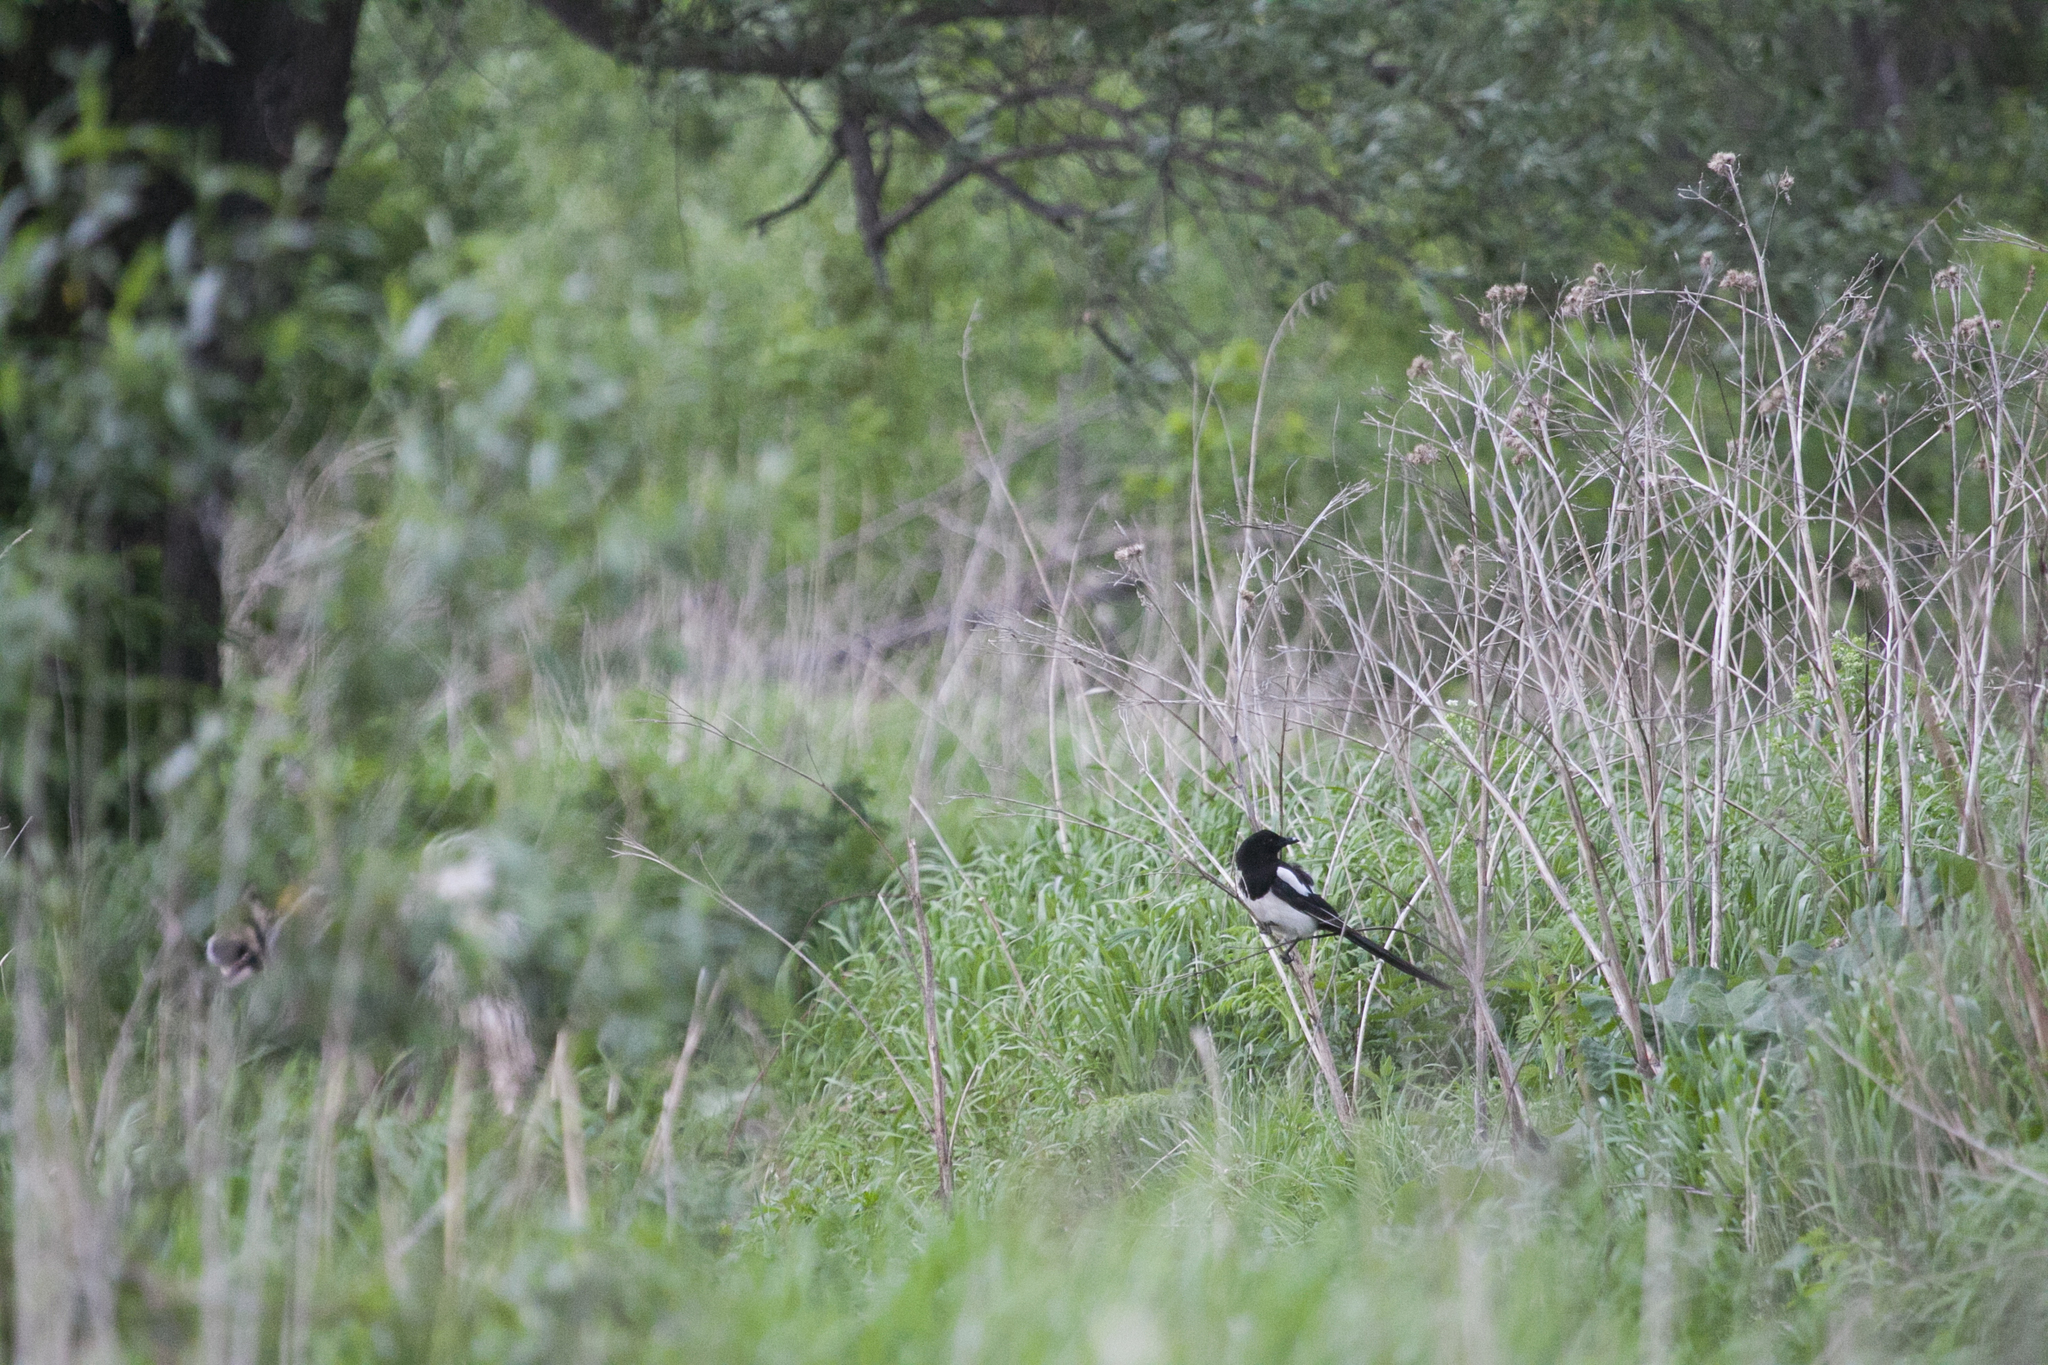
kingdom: Animalia
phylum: Chordata
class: Aves
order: Passeriformes
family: Corvidae
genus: Pica
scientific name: Pica pica
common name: Eurasian magpie
